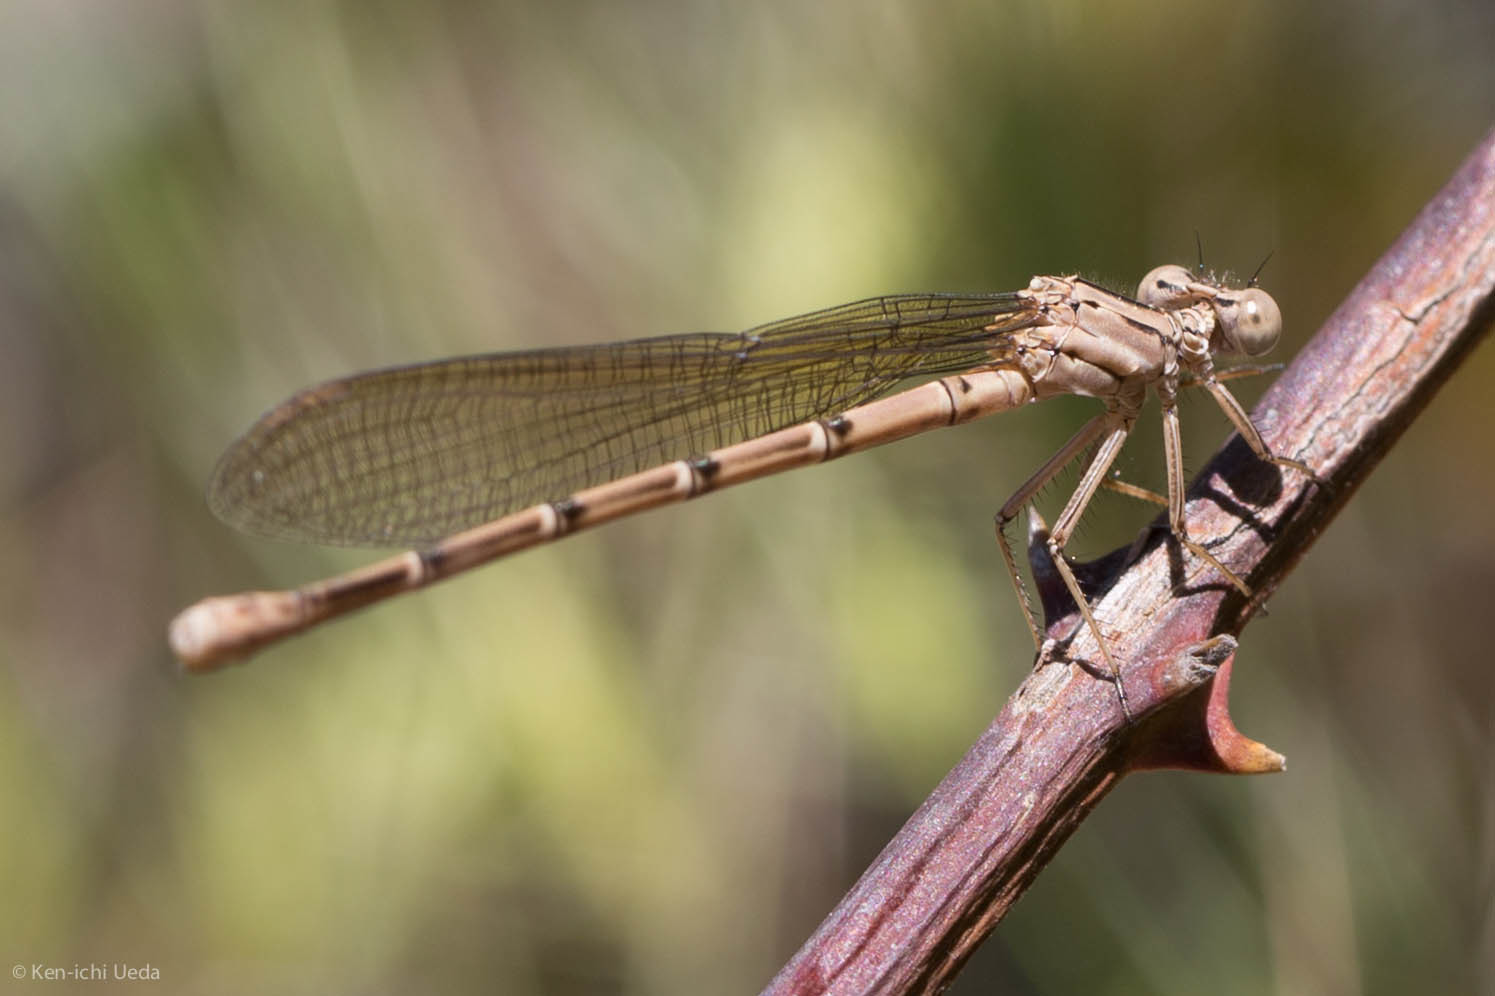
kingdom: Animalia
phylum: Arthropoda
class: Insecta
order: Odonata
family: Coenagrionidae
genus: Argia
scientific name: Argia emma
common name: Emma's dancer
